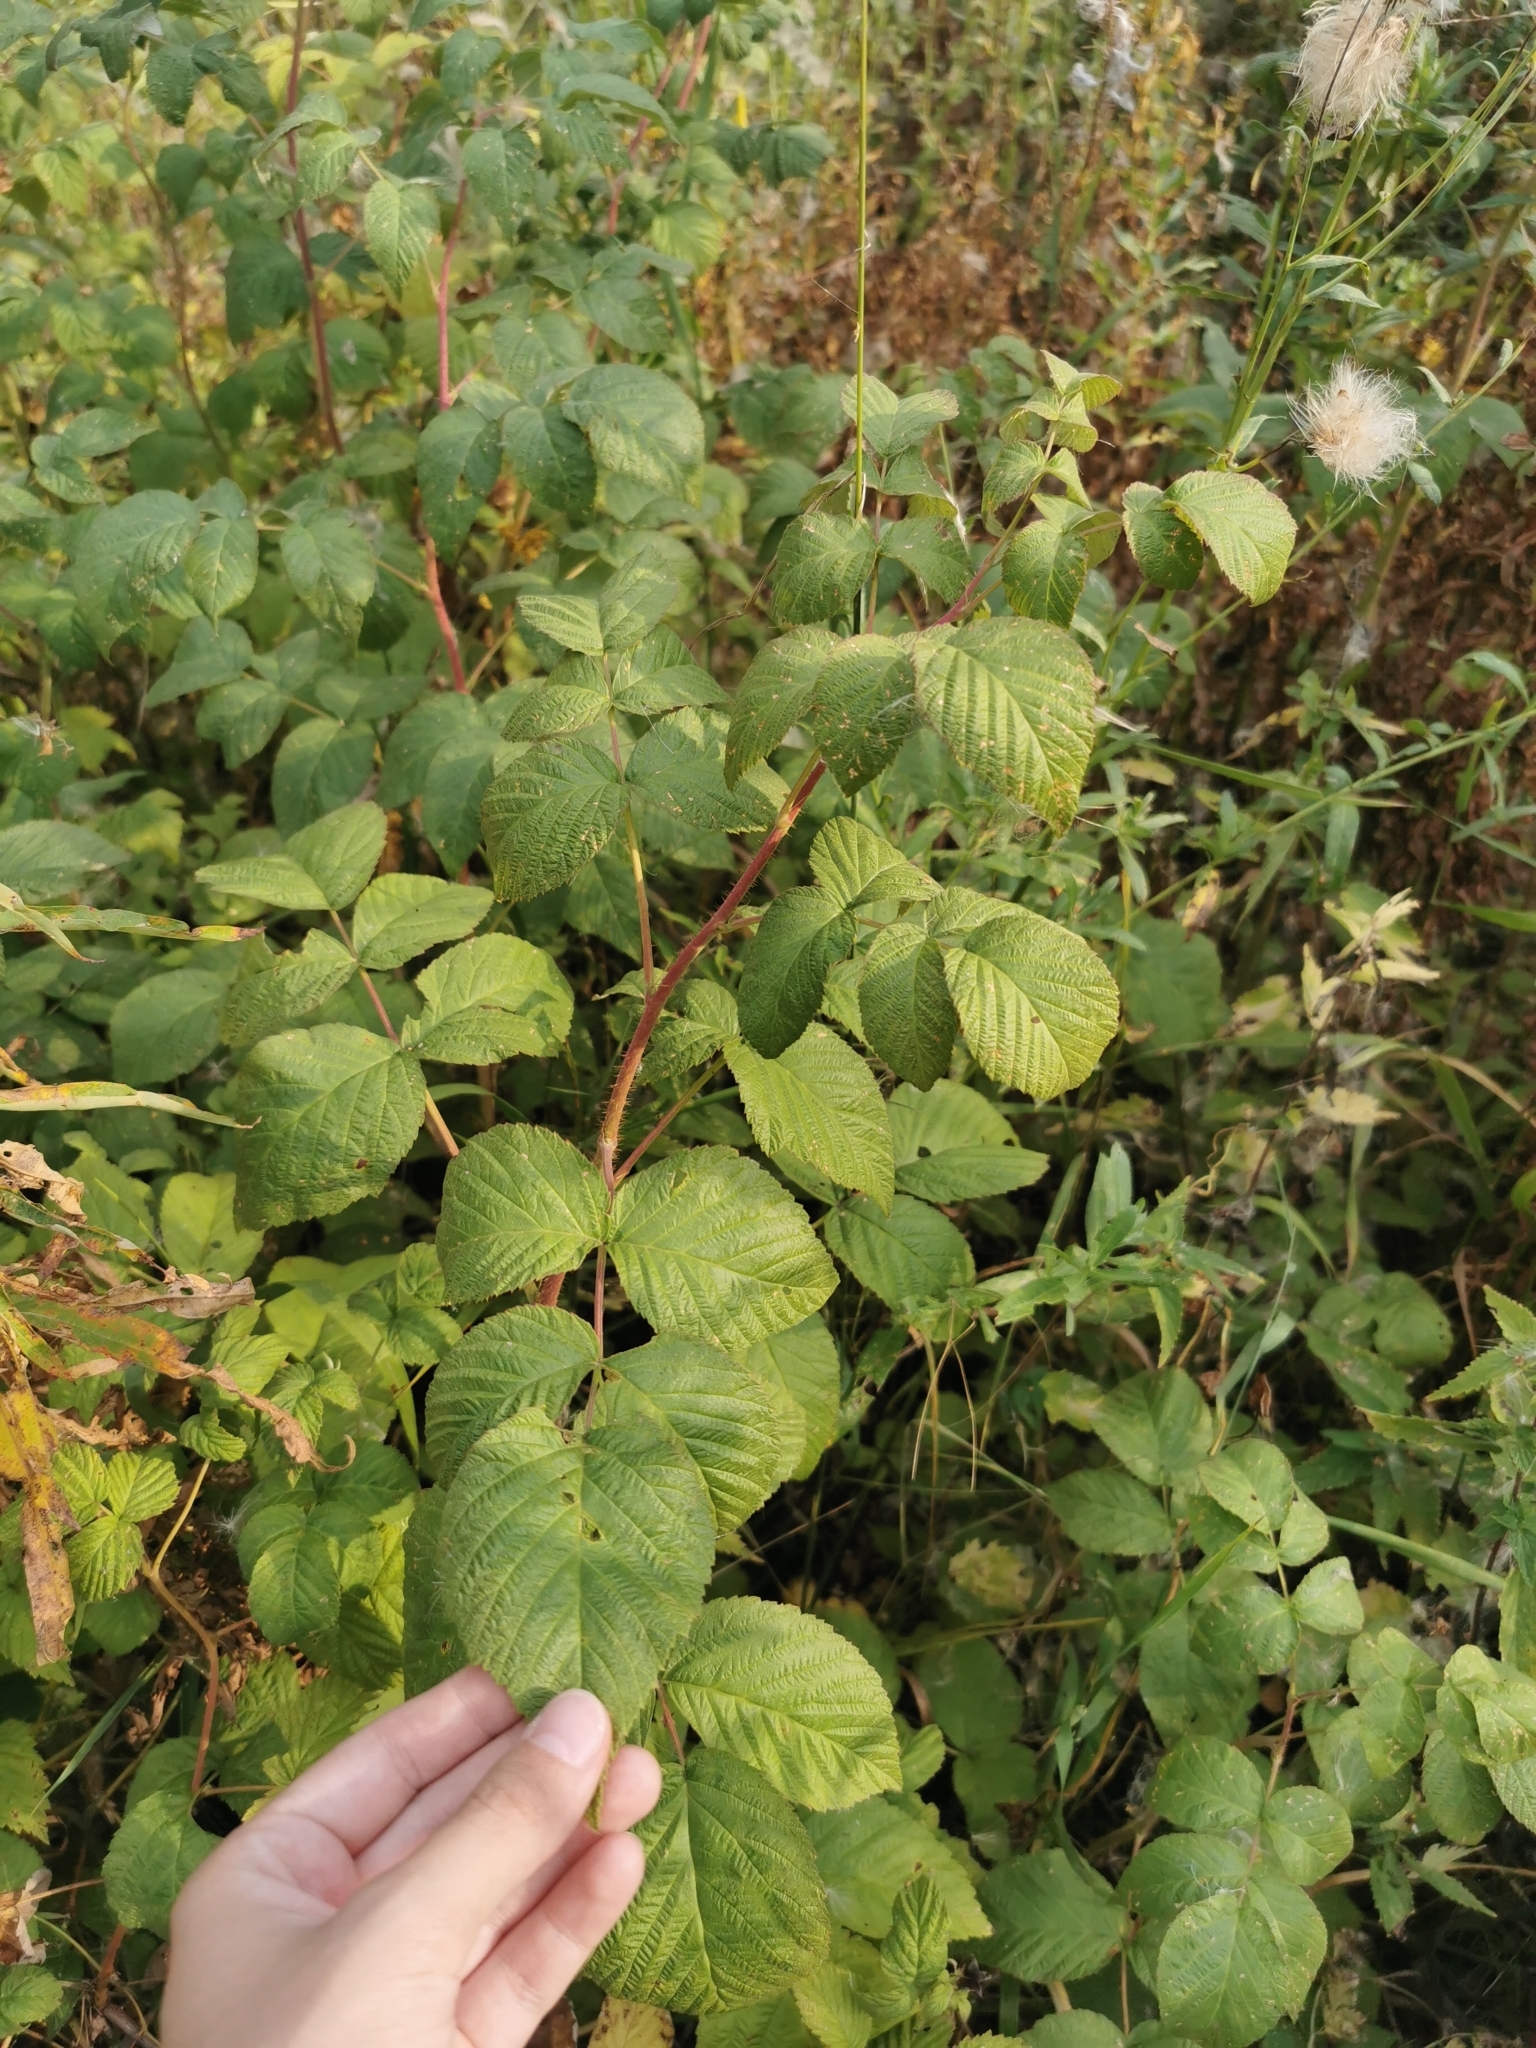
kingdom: Plantae
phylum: Tracheophyta
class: Magnoliopsida
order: Rosales
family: Rosaceae
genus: Rubus
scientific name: Rubus idaeus
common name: Raspberry
